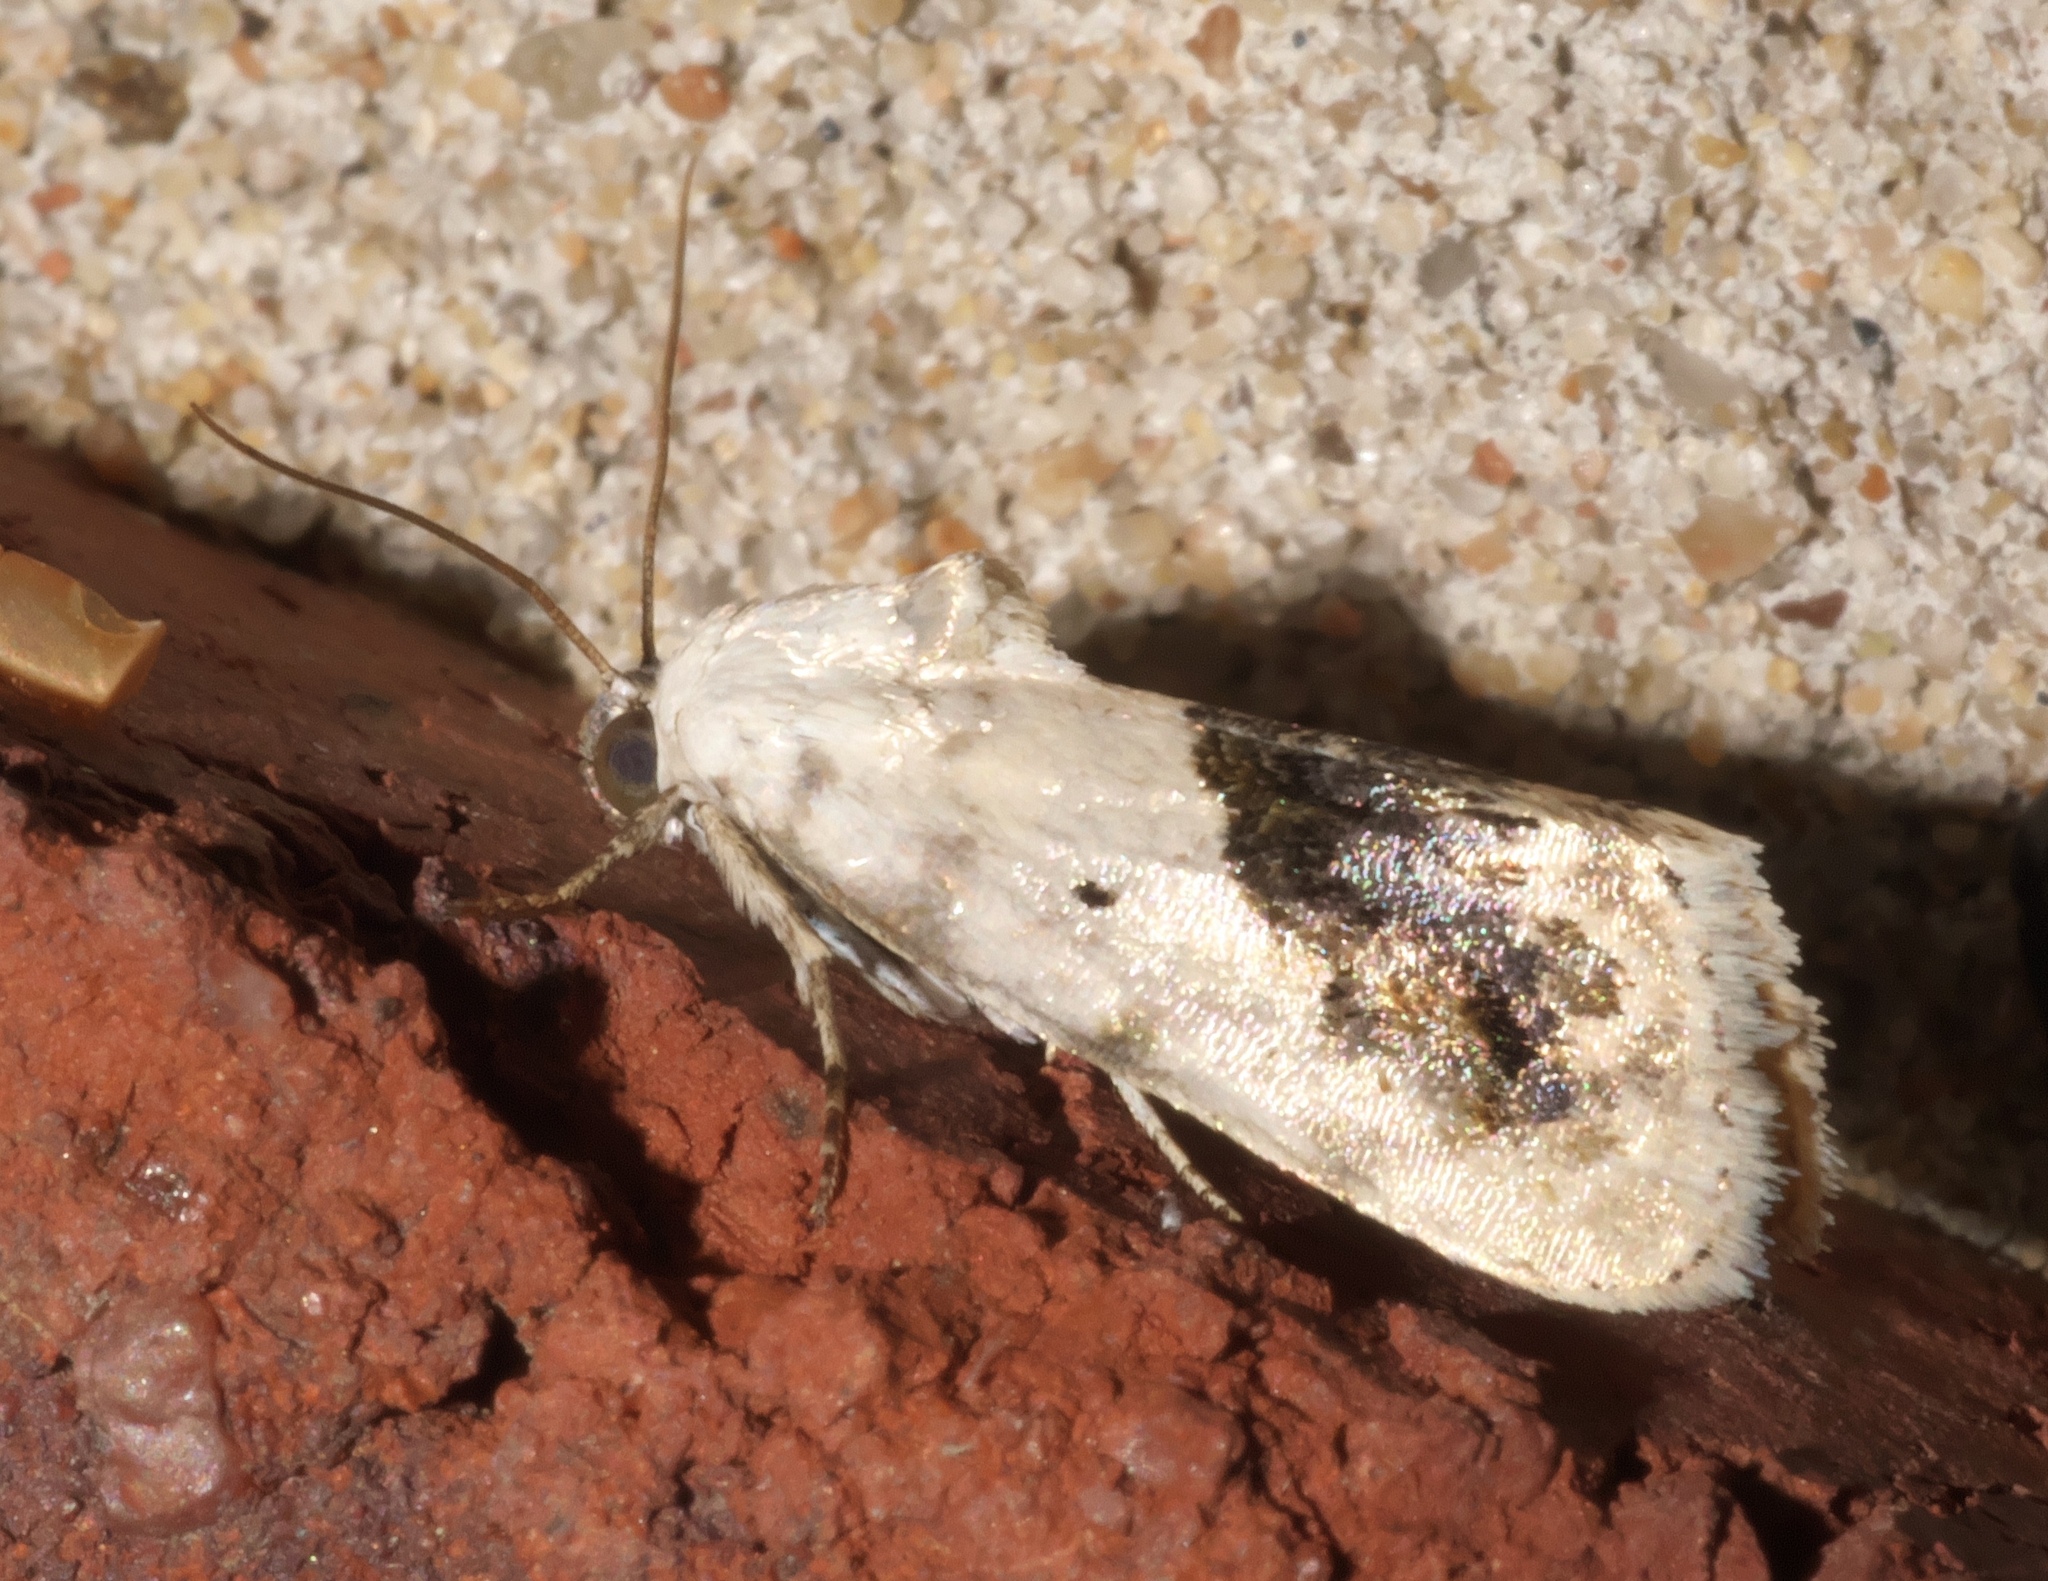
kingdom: Animalia
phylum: Arthropoda
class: Insecta
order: Lepidoptera
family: Noctuidae
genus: Acontia
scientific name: Acontia erastrioides
